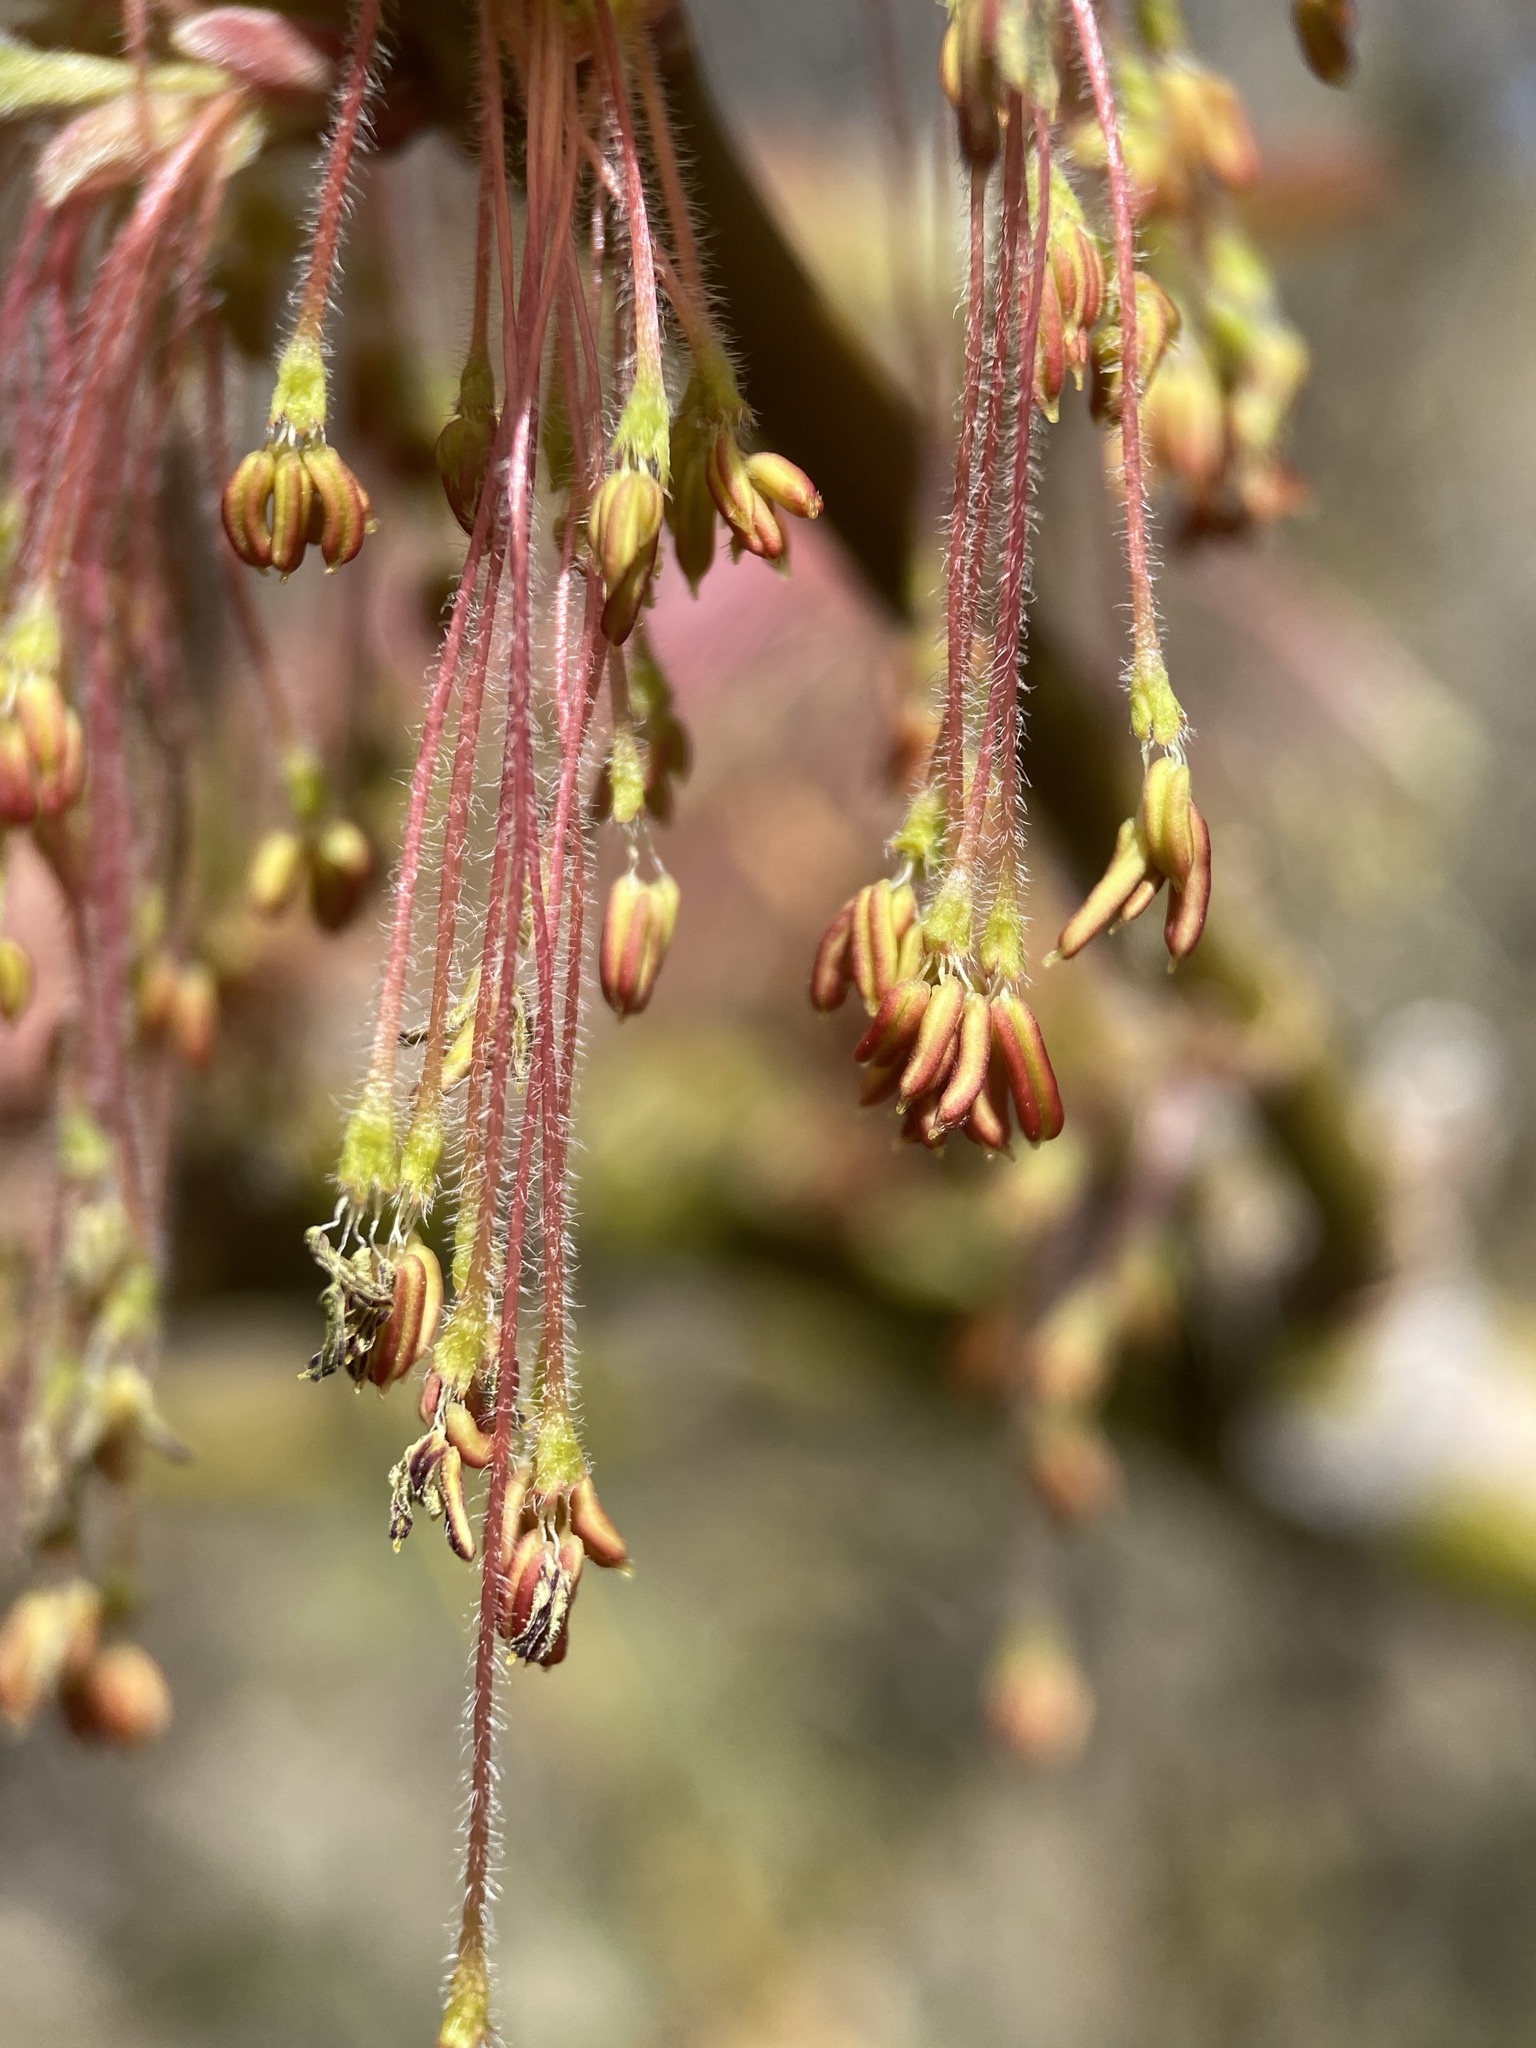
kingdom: Plantae
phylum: Tracheophyta
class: Magnoliopsida
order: Sapindales
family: Sapindaceae
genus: Acer
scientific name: Acer negundo
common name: Ashleaf maple
